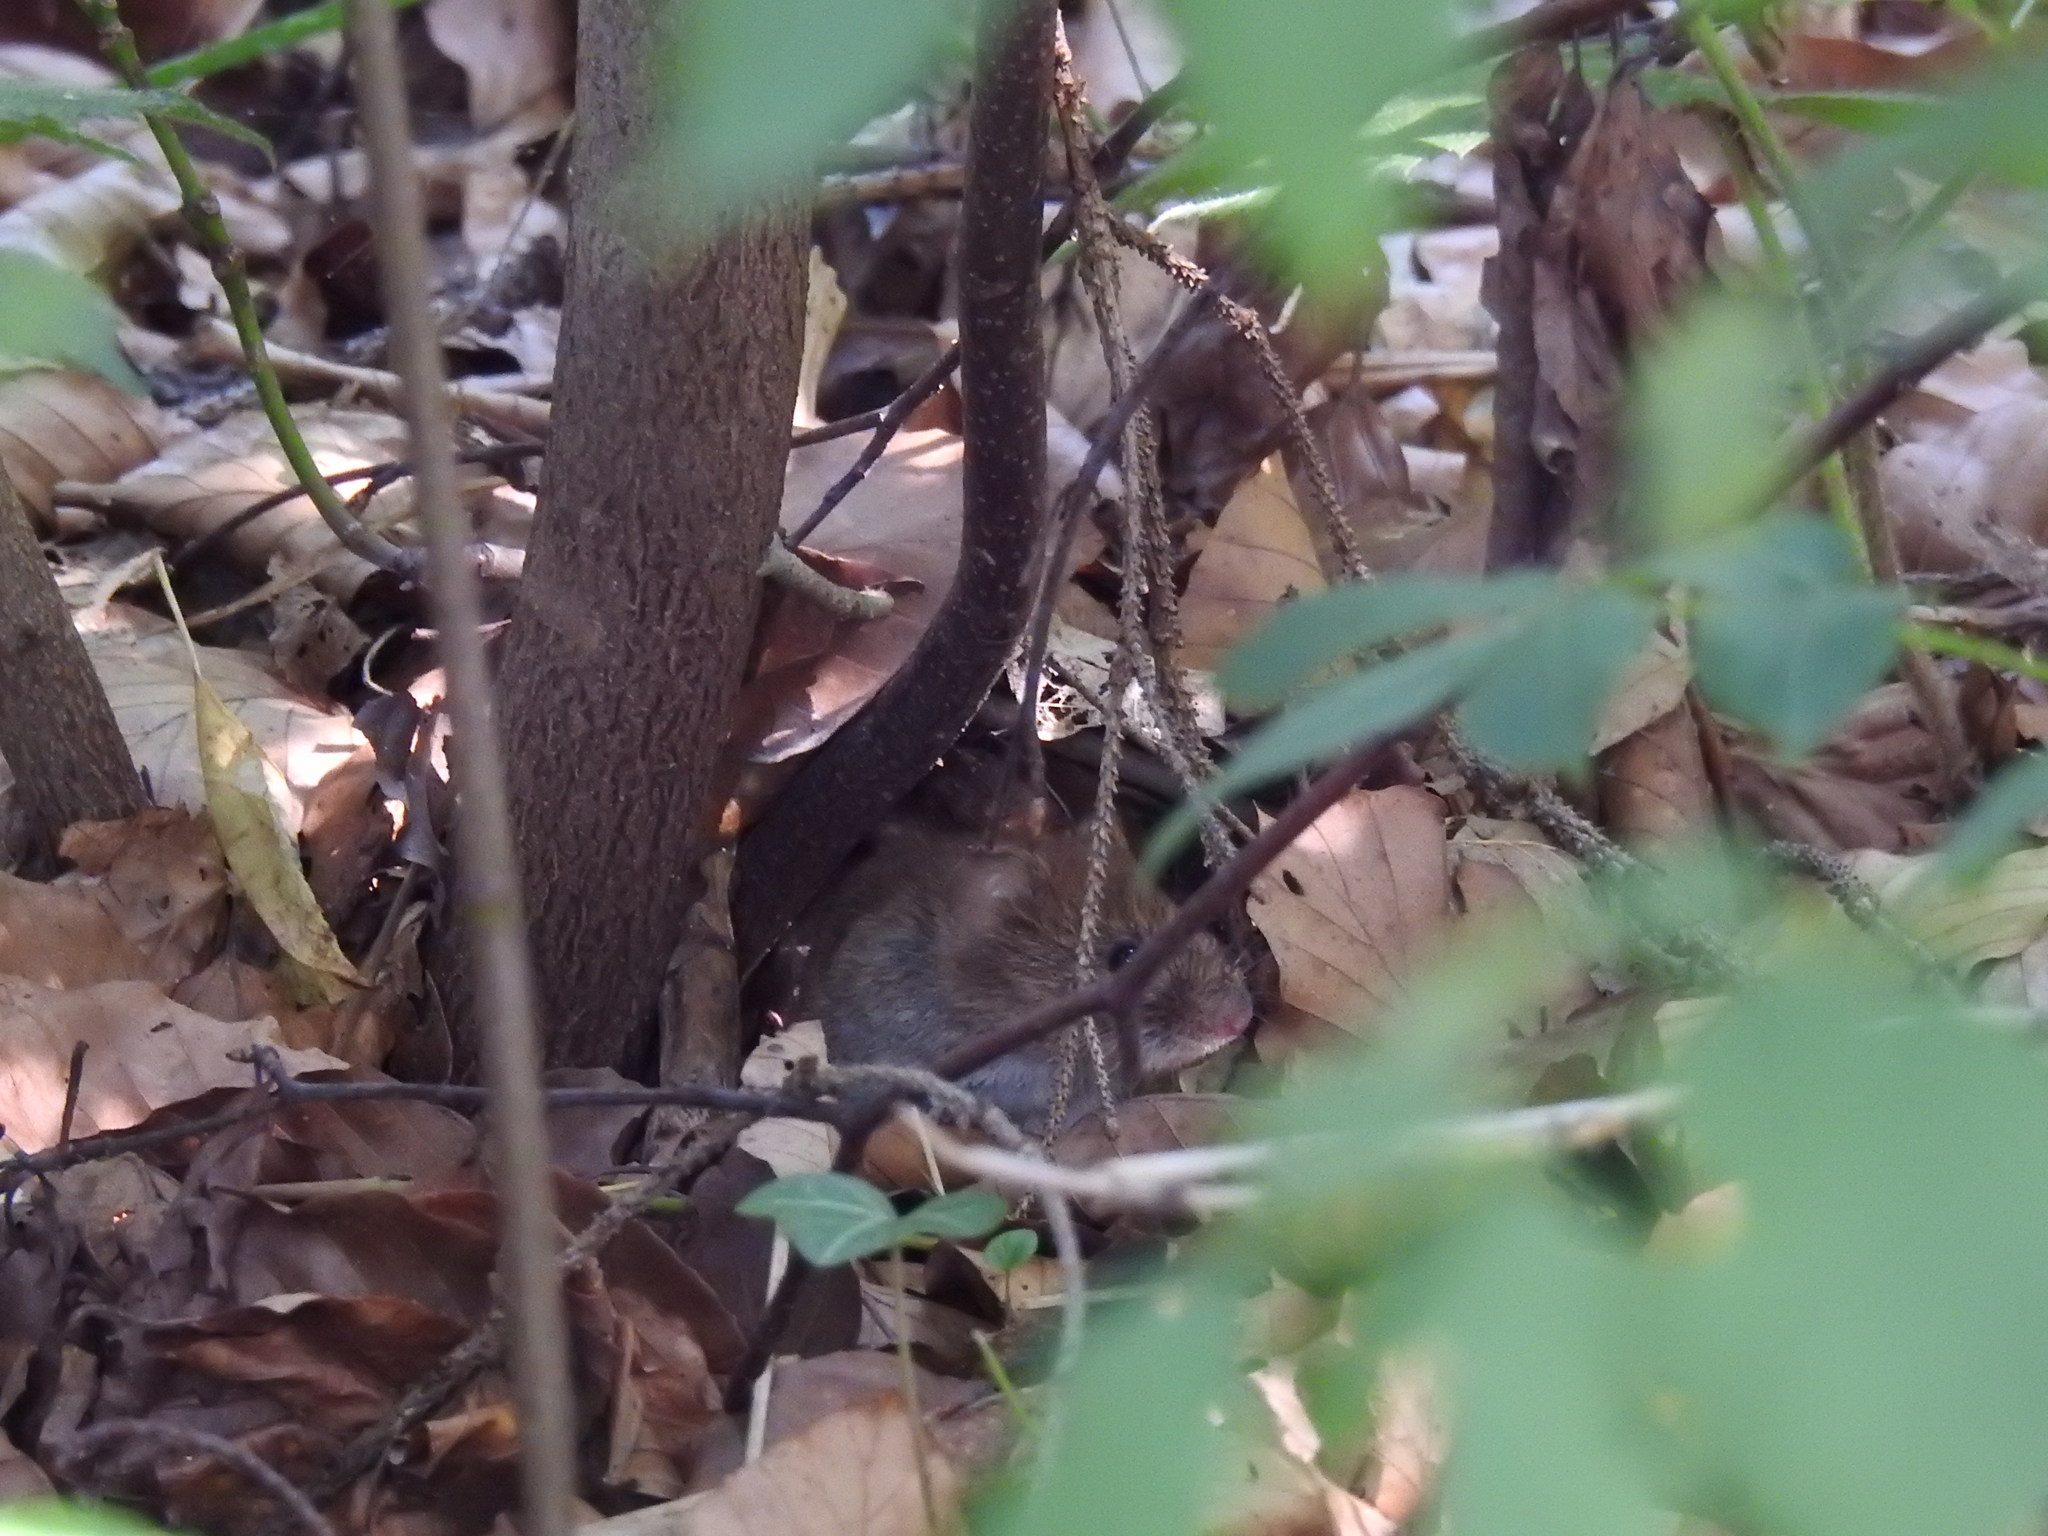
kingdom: Animalia
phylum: Chordata
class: Mammalia
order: Rodentia
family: Cricetidae
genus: Myodes
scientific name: Myodes glareolus
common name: Bank vole
